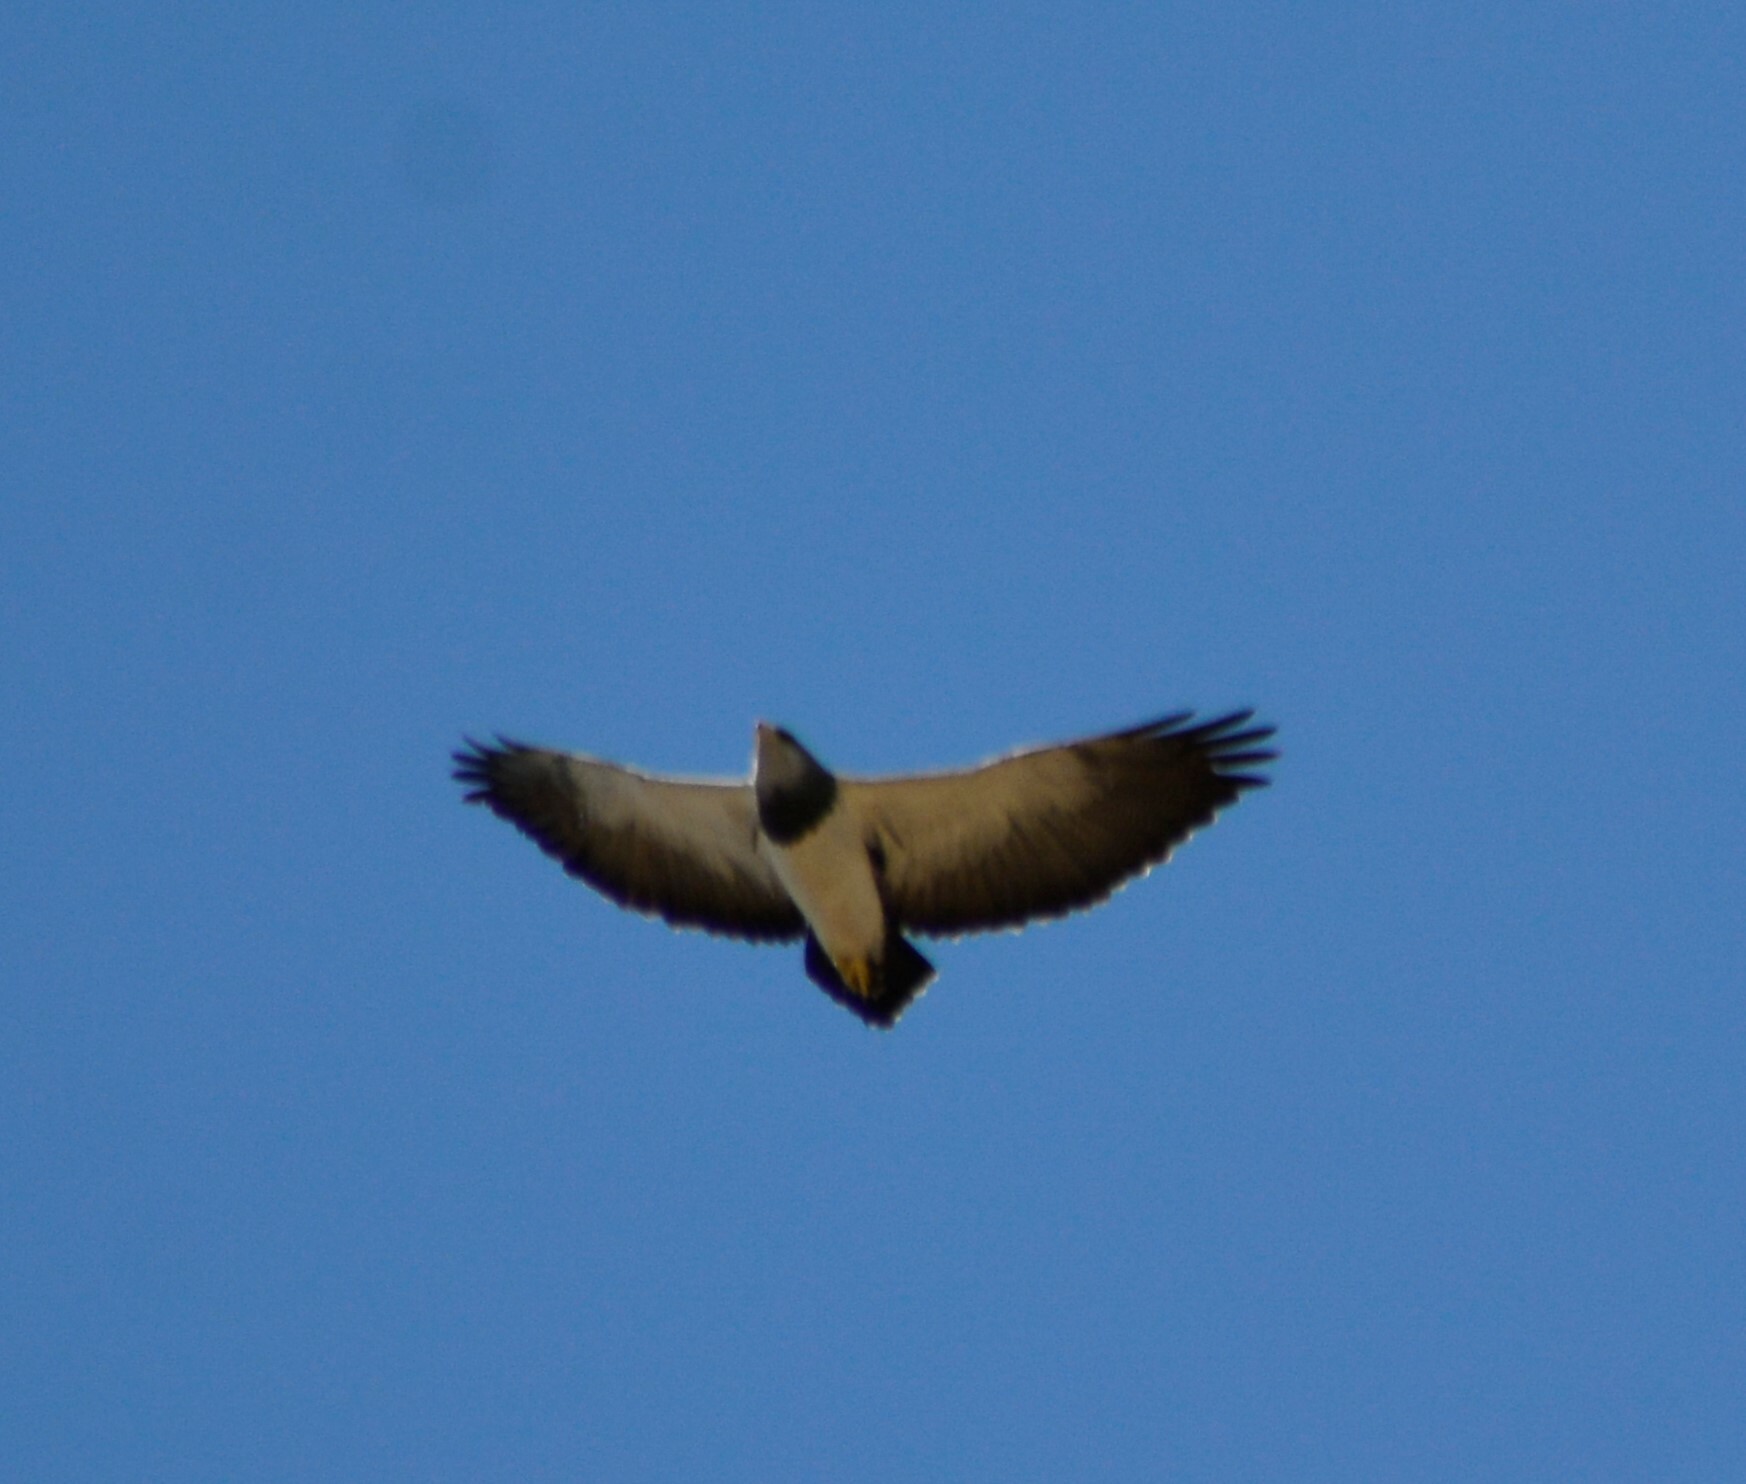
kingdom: Animalia
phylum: Chordata
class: Aves
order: Accipitriformes
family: Accipitridae
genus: Geranoaetus
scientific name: Geranoaetus melanoleucus
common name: Black-chested buzzard-eagle
